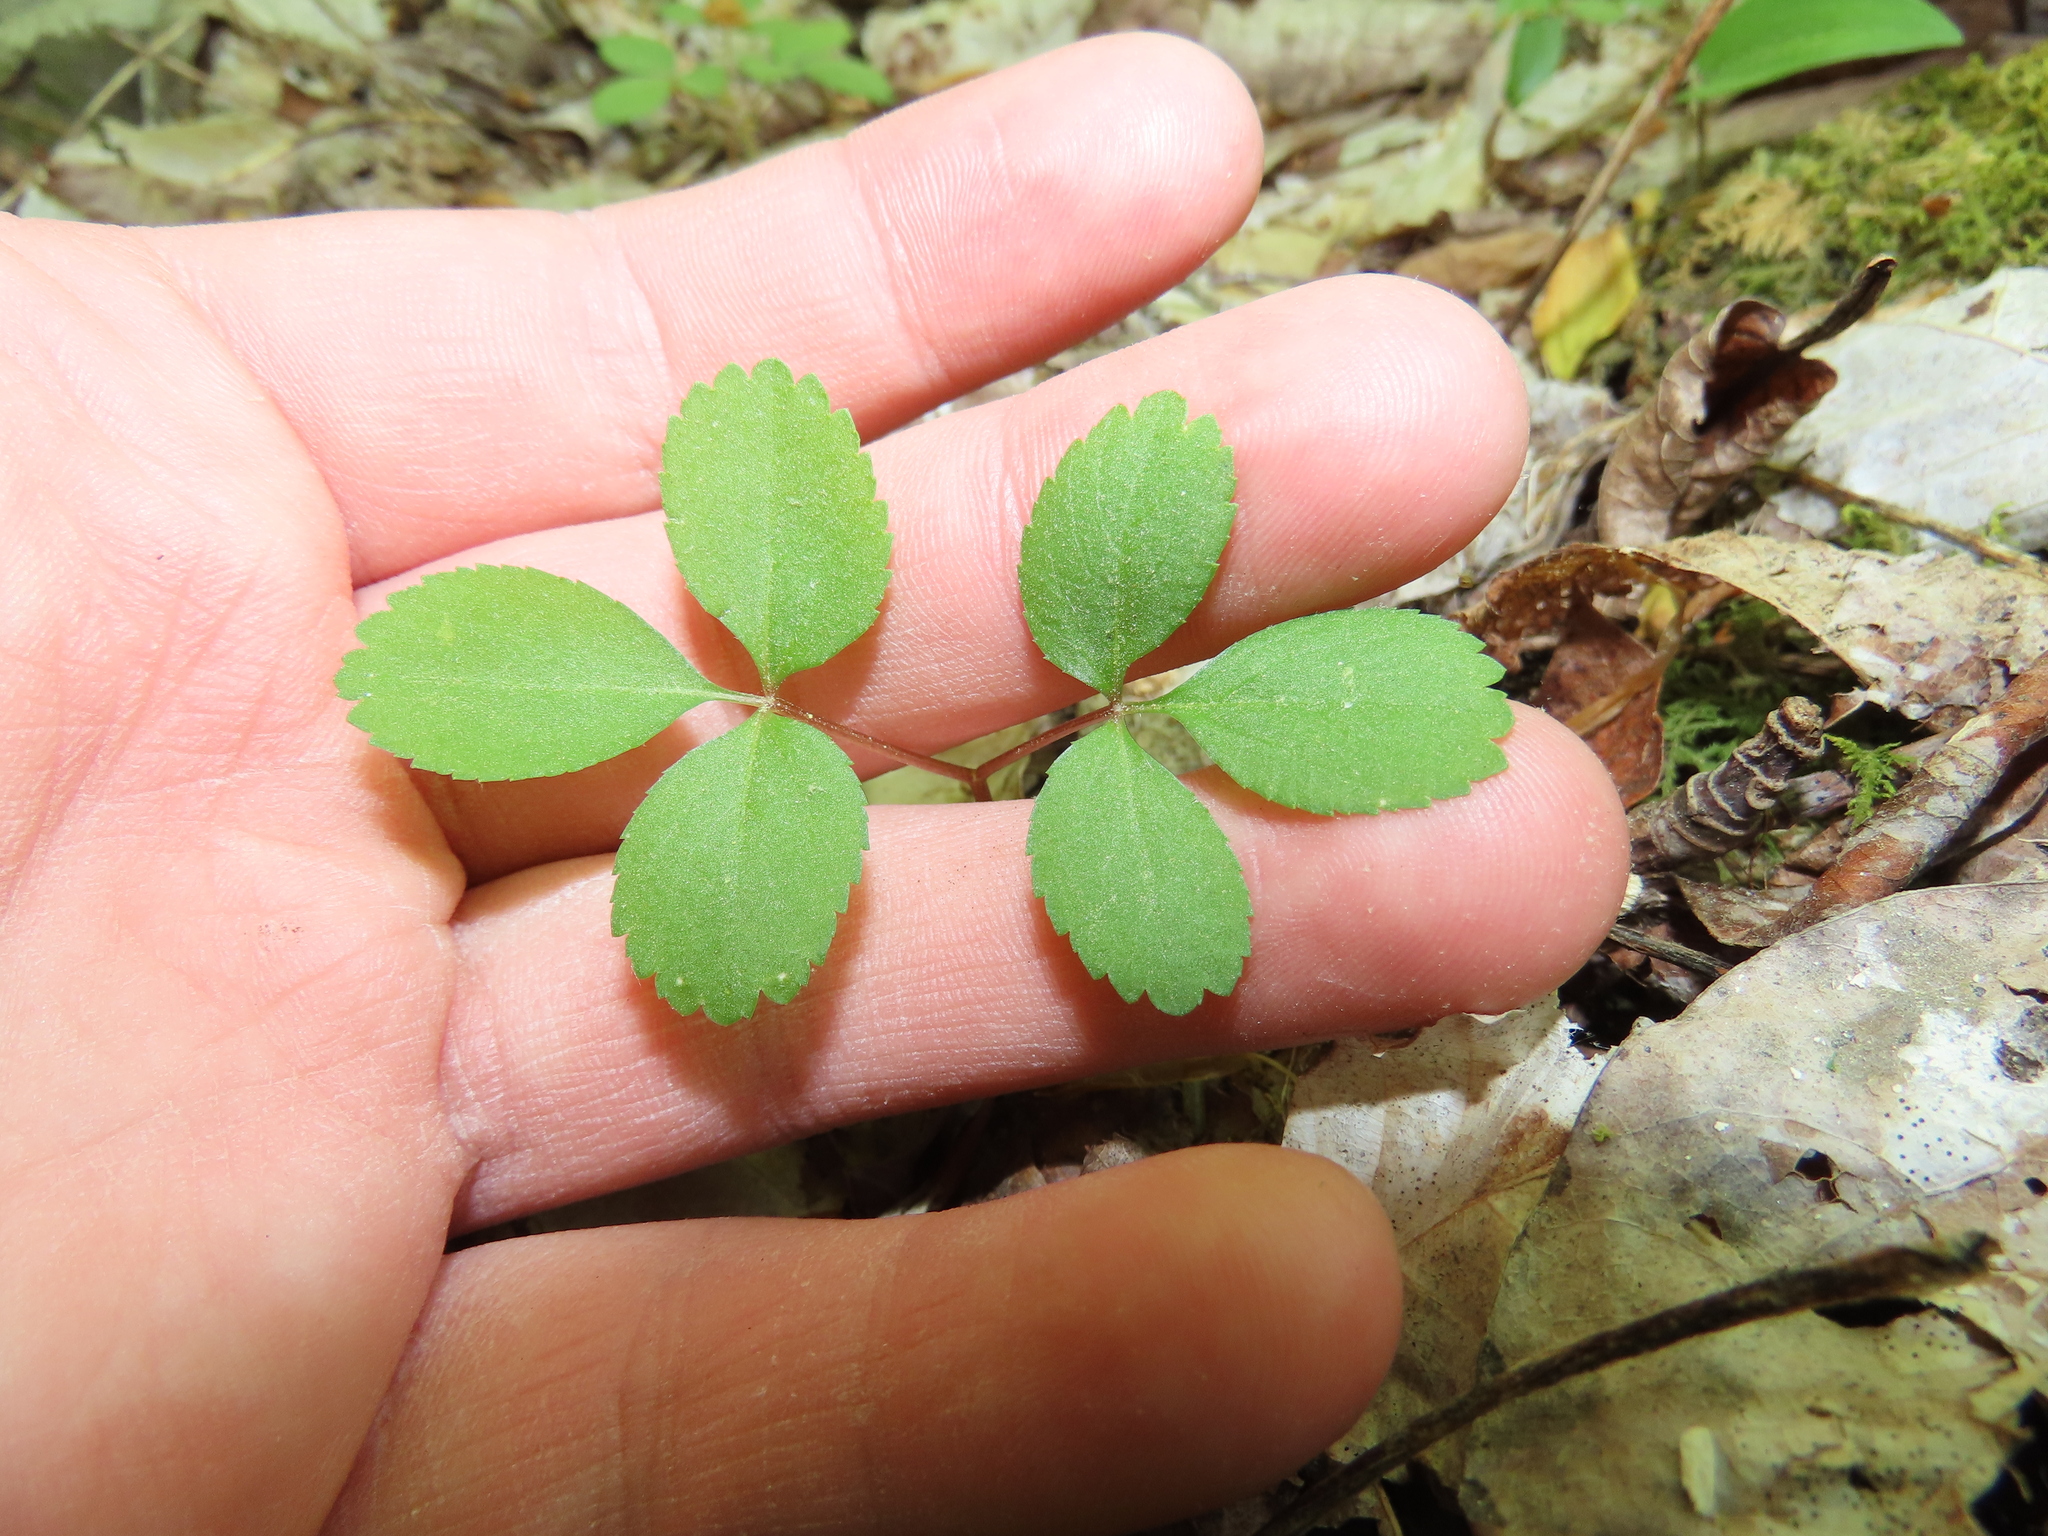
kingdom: Plantae
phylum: Tracheophyta
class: Magnoliopsida
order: Apiales
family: Araliaceae
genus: Panax
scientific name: Panax trifolius
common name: Dwarf ginseng
